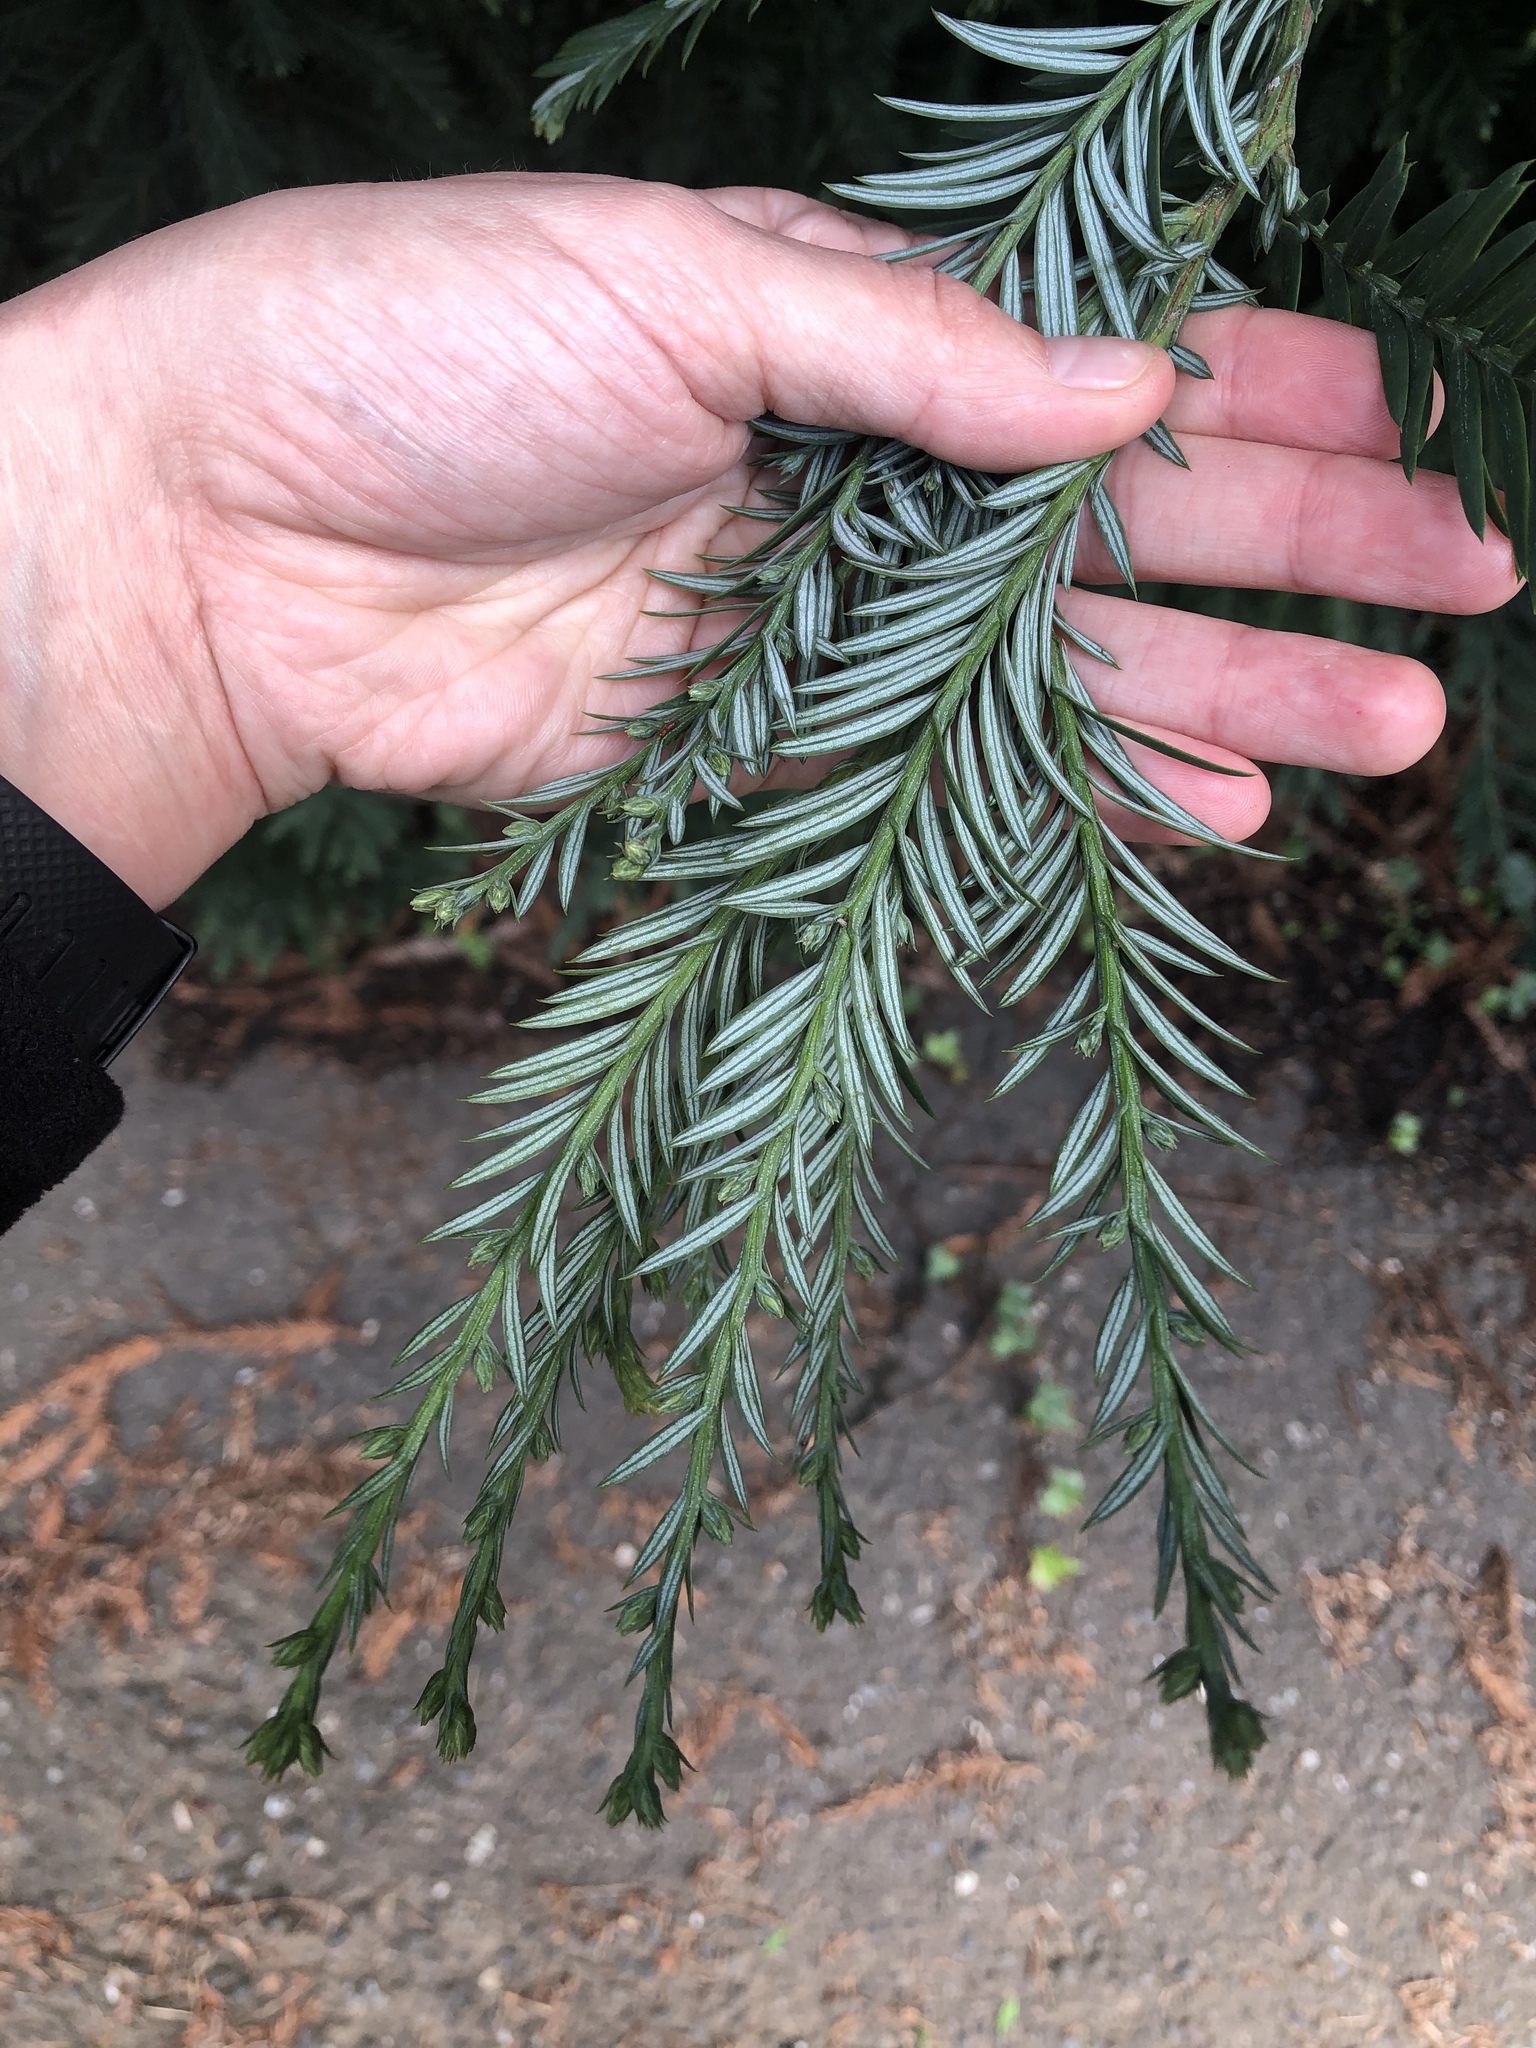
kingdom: Plantae
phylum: Tracheophyta
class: Pinopsida
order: Pinales
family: Cupressaceae
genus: Sequoia
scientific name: Sequoia sempervirens
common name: Coast redwood
